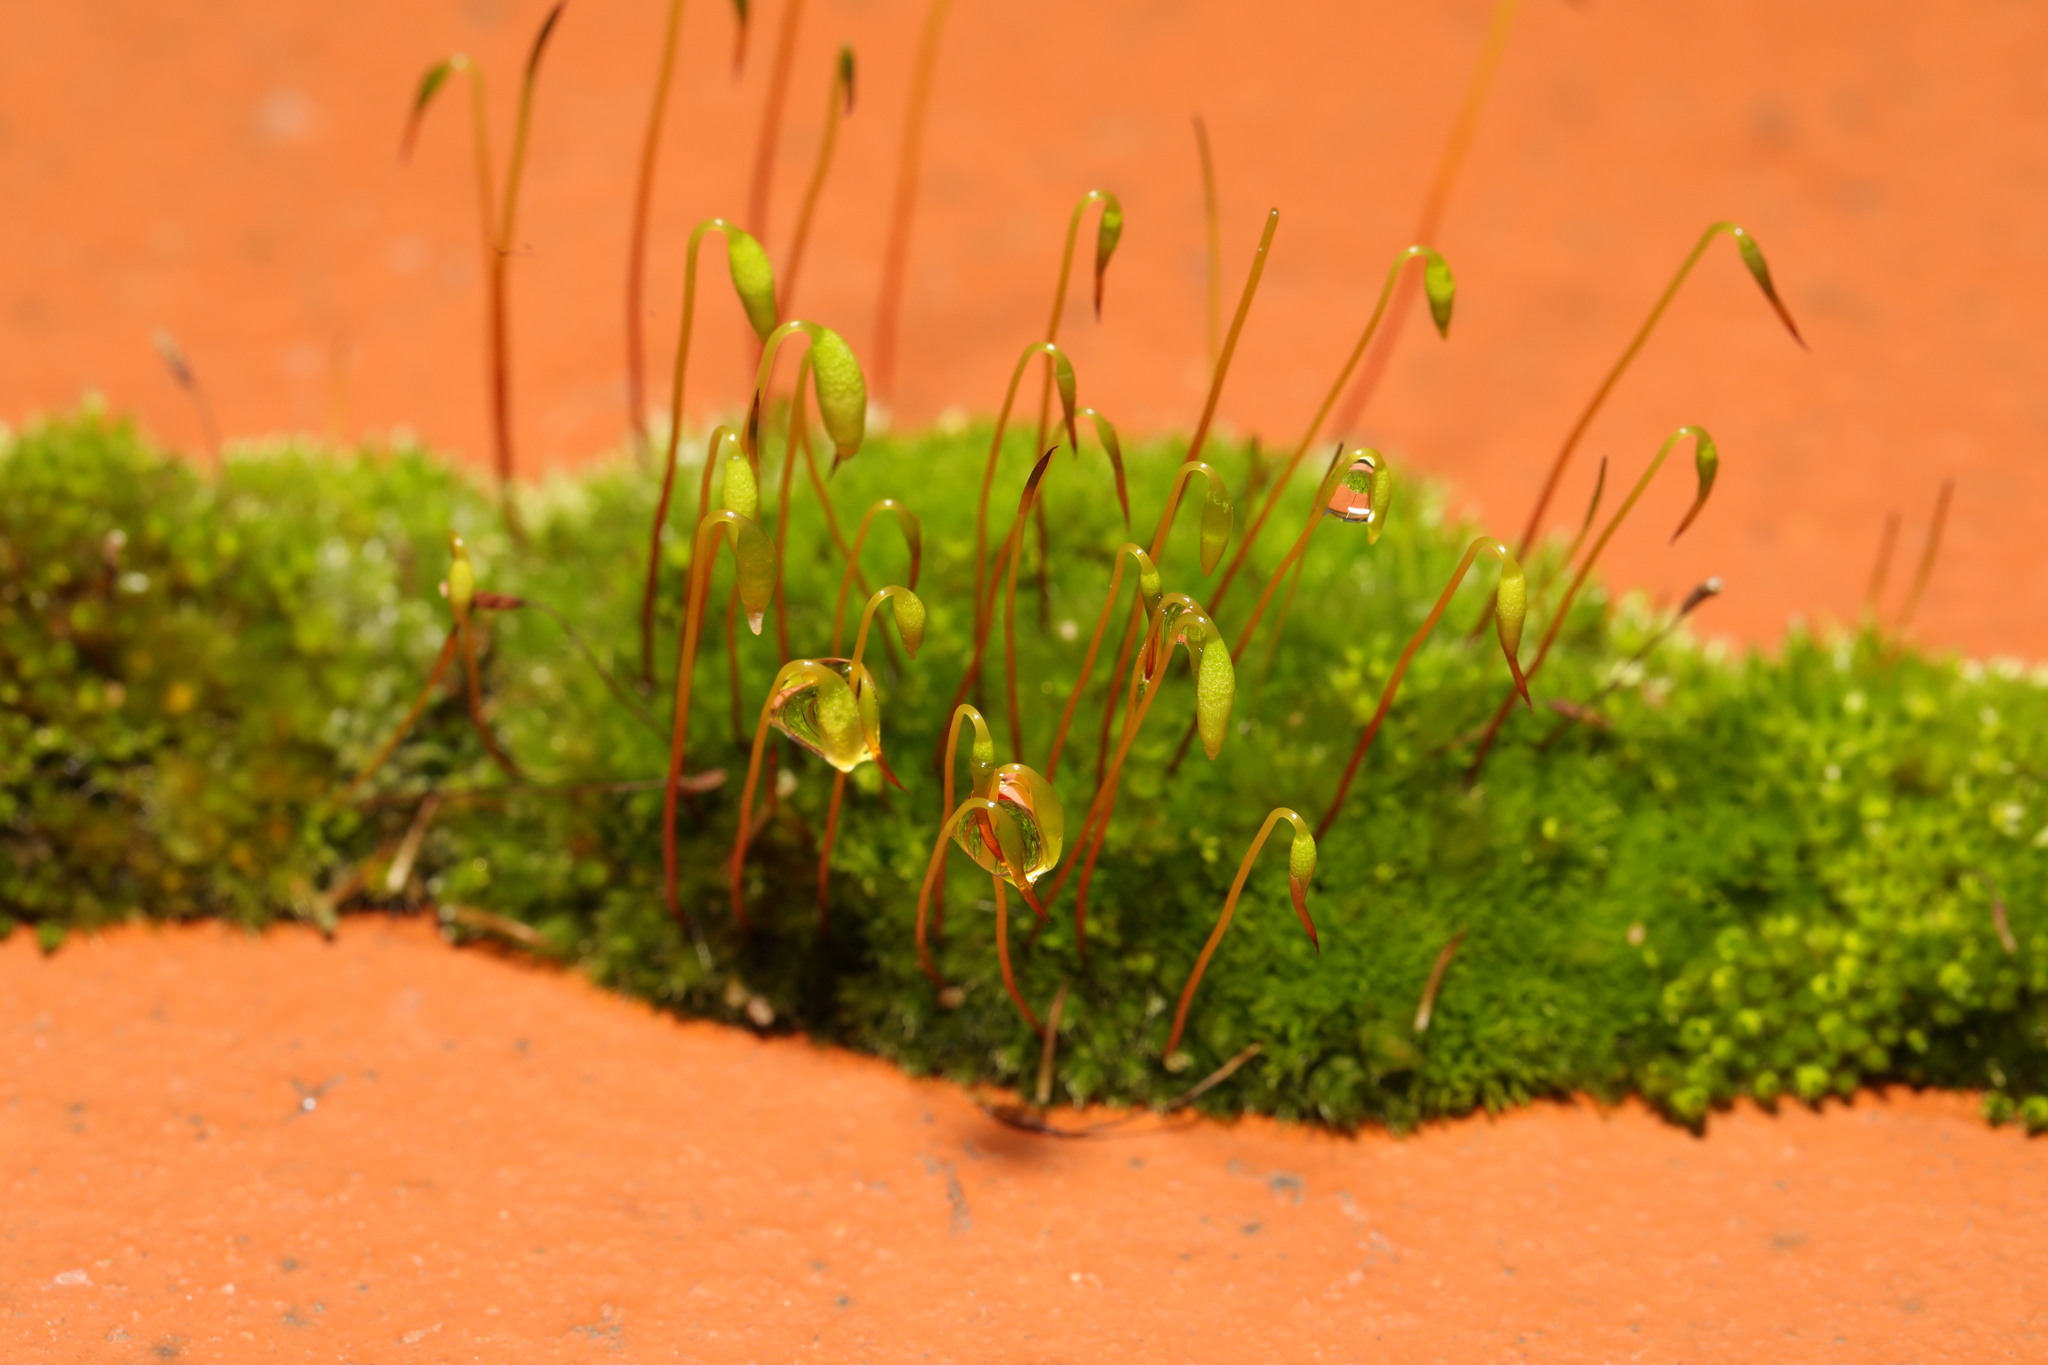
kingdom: Plantae
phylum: Bryophyta
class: Bryopsida
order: Bryales
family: Bryaceae
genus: Rosulabryum
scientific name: Rosulabryum capillare
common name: Capillary thread-moss
